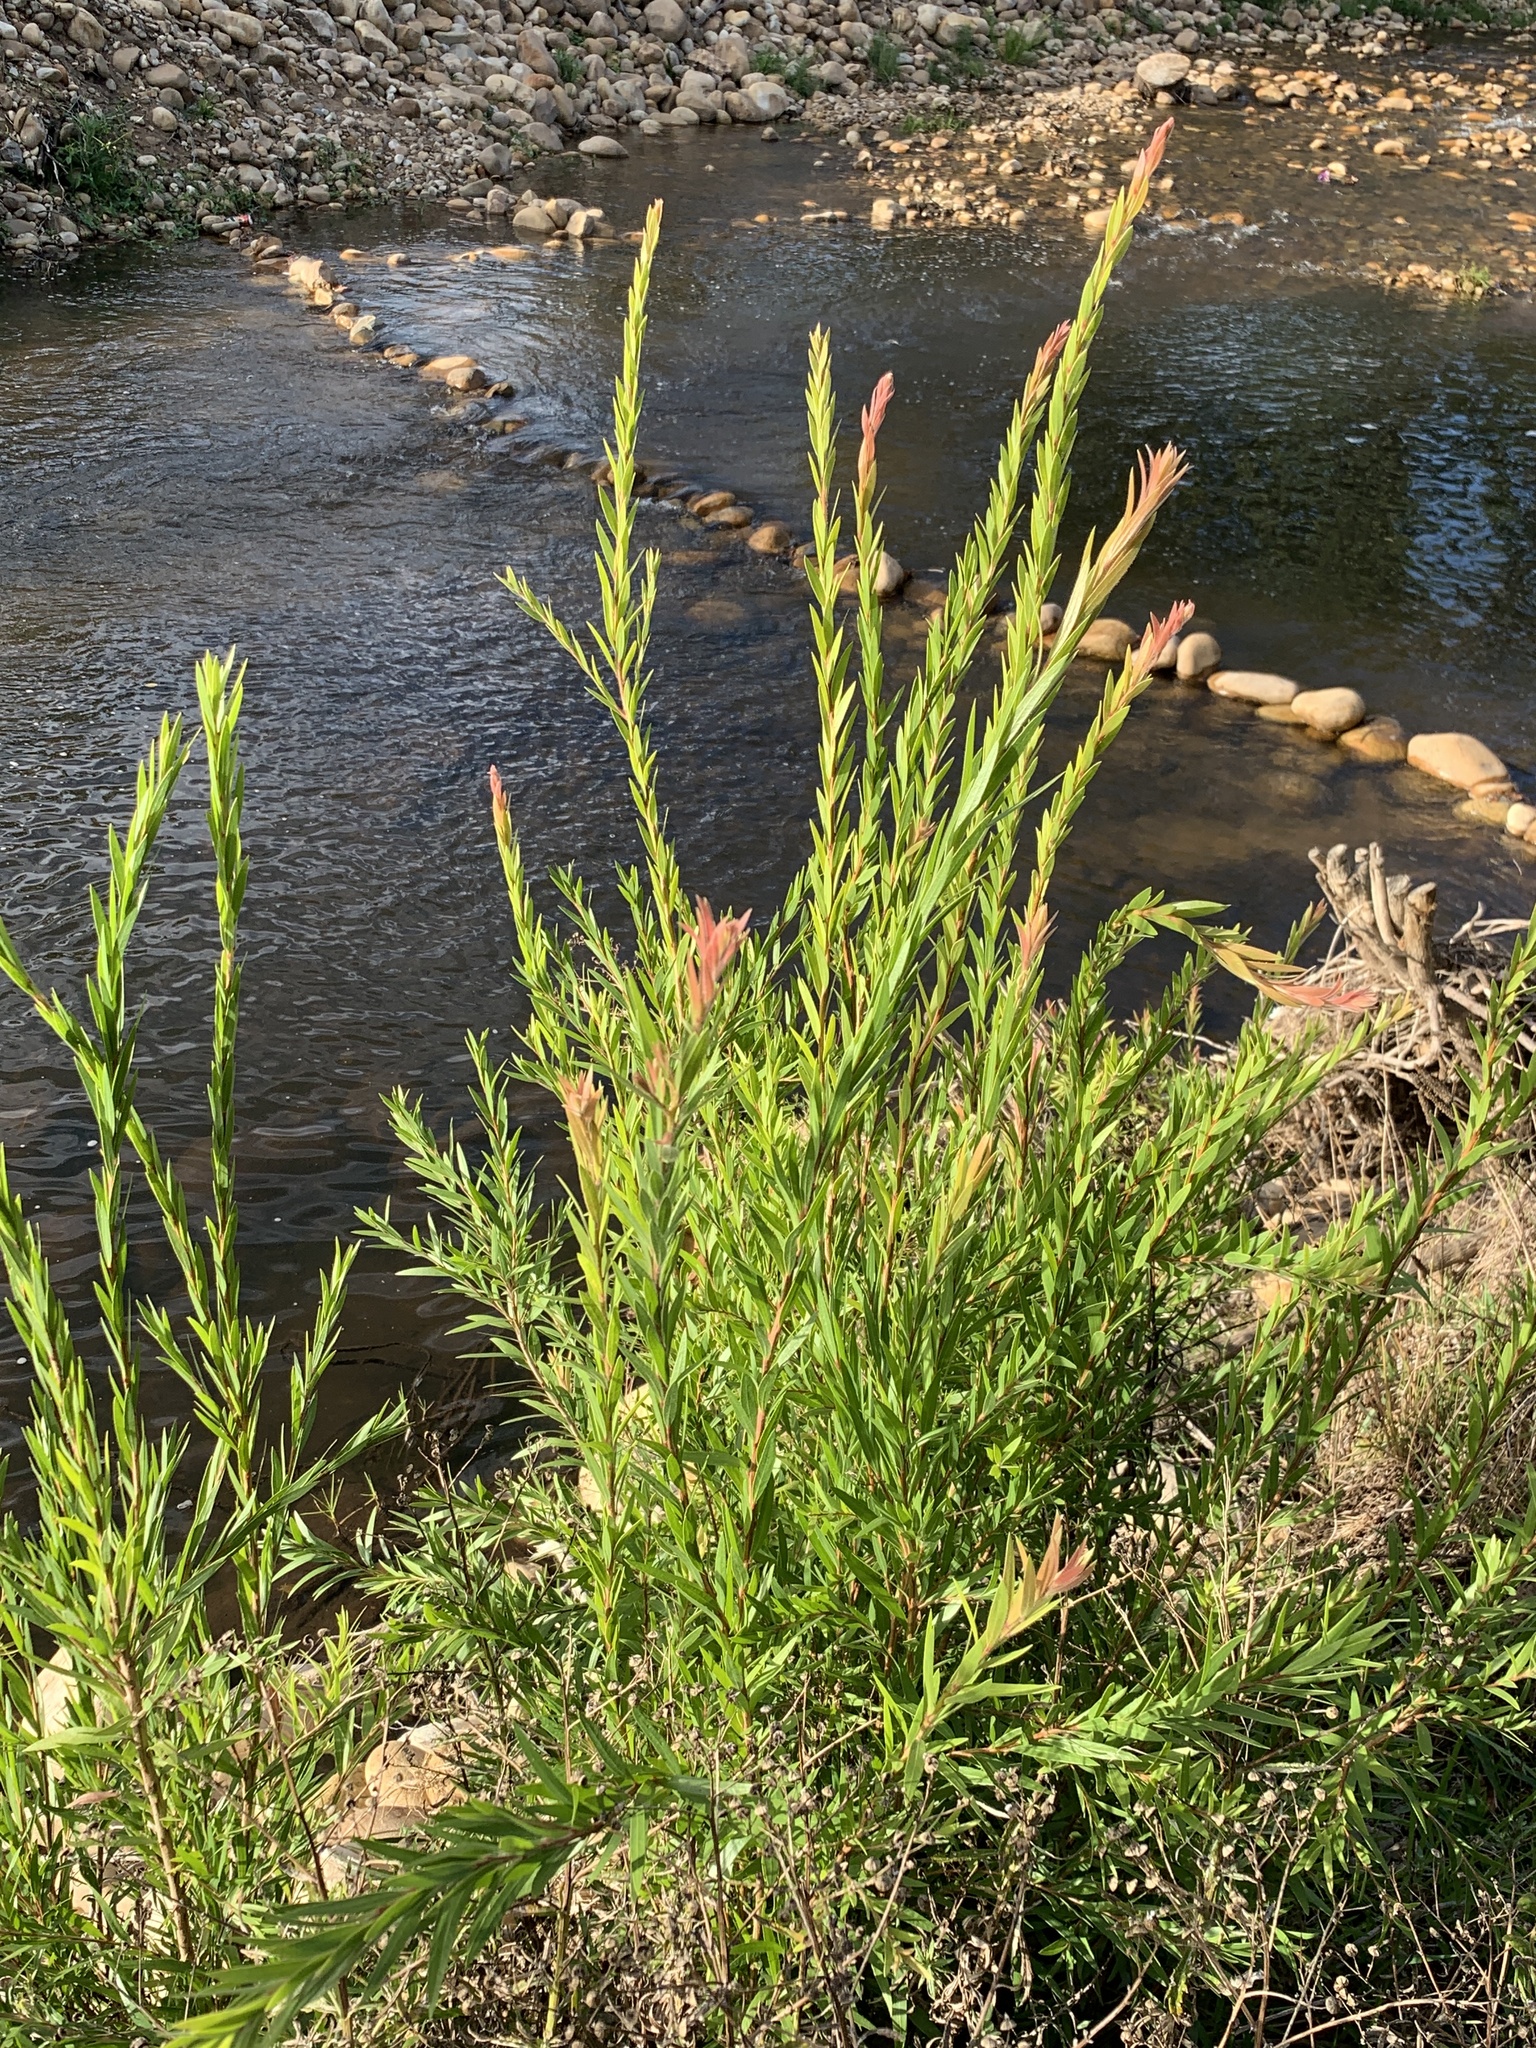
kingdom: Plantae
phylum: Tracheophyta
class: Magnoliopsida
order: Myrtales
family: Myrtaceae
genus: Callistemon
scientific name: Callistemon viminalis
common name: Drooping bottlebrush
